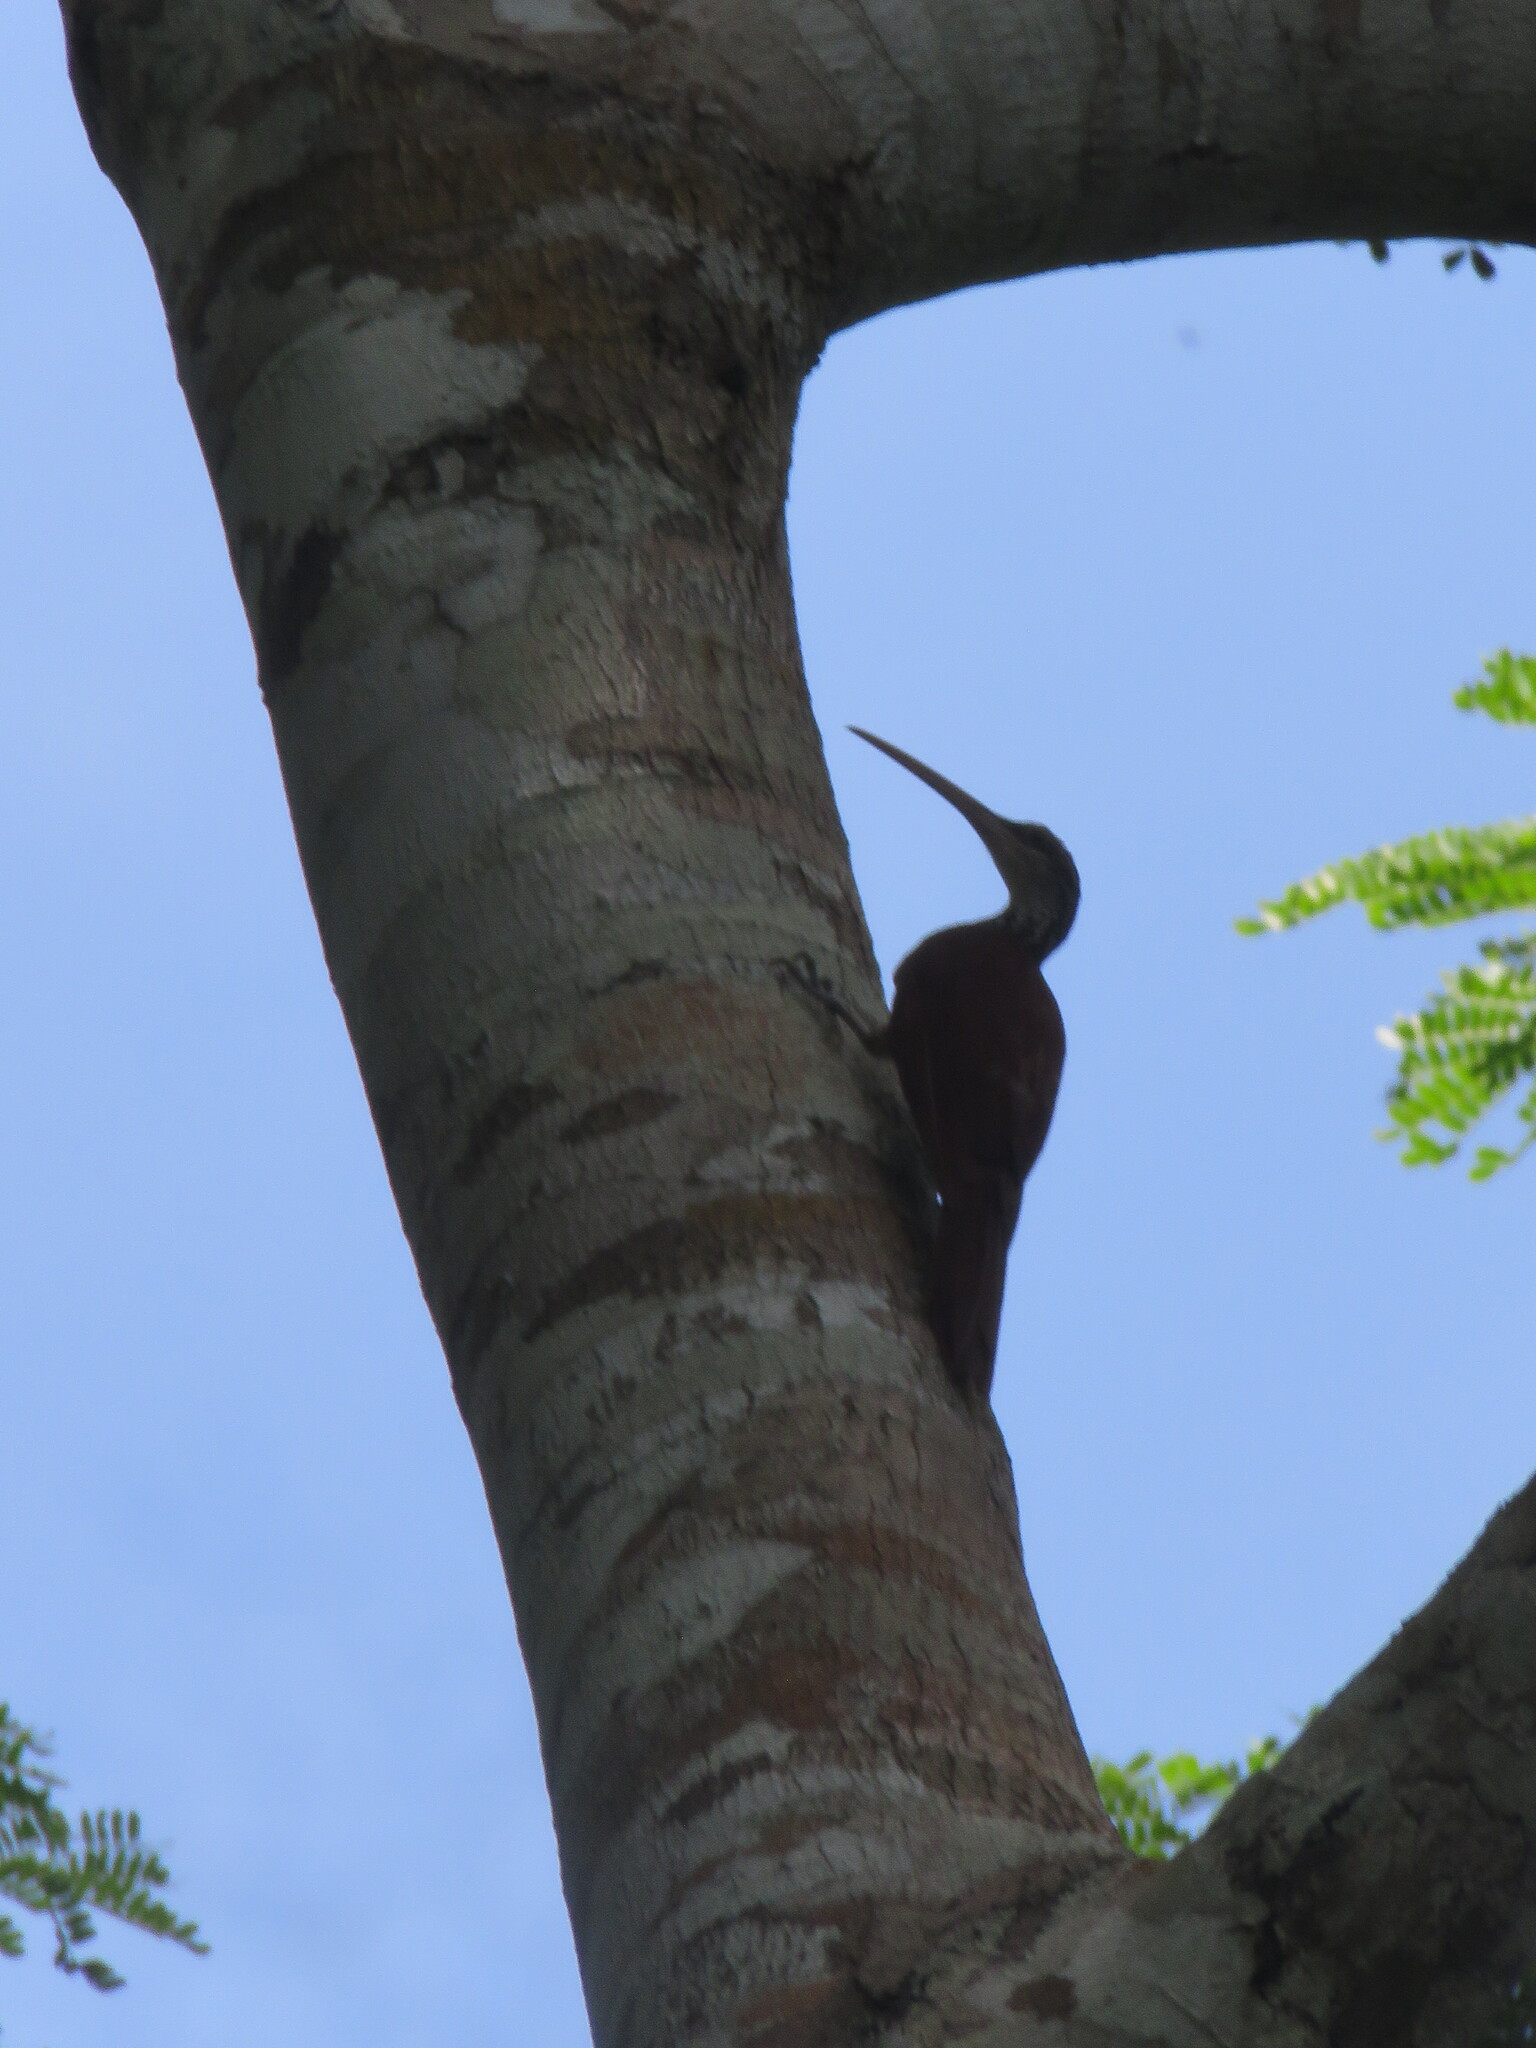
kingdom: Animalia
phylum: Chordata
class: Aves
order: Passeriformes
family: Furnariidae
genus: Nasica
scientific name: Nasica longirostris
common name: Long-billed woodcreeper
